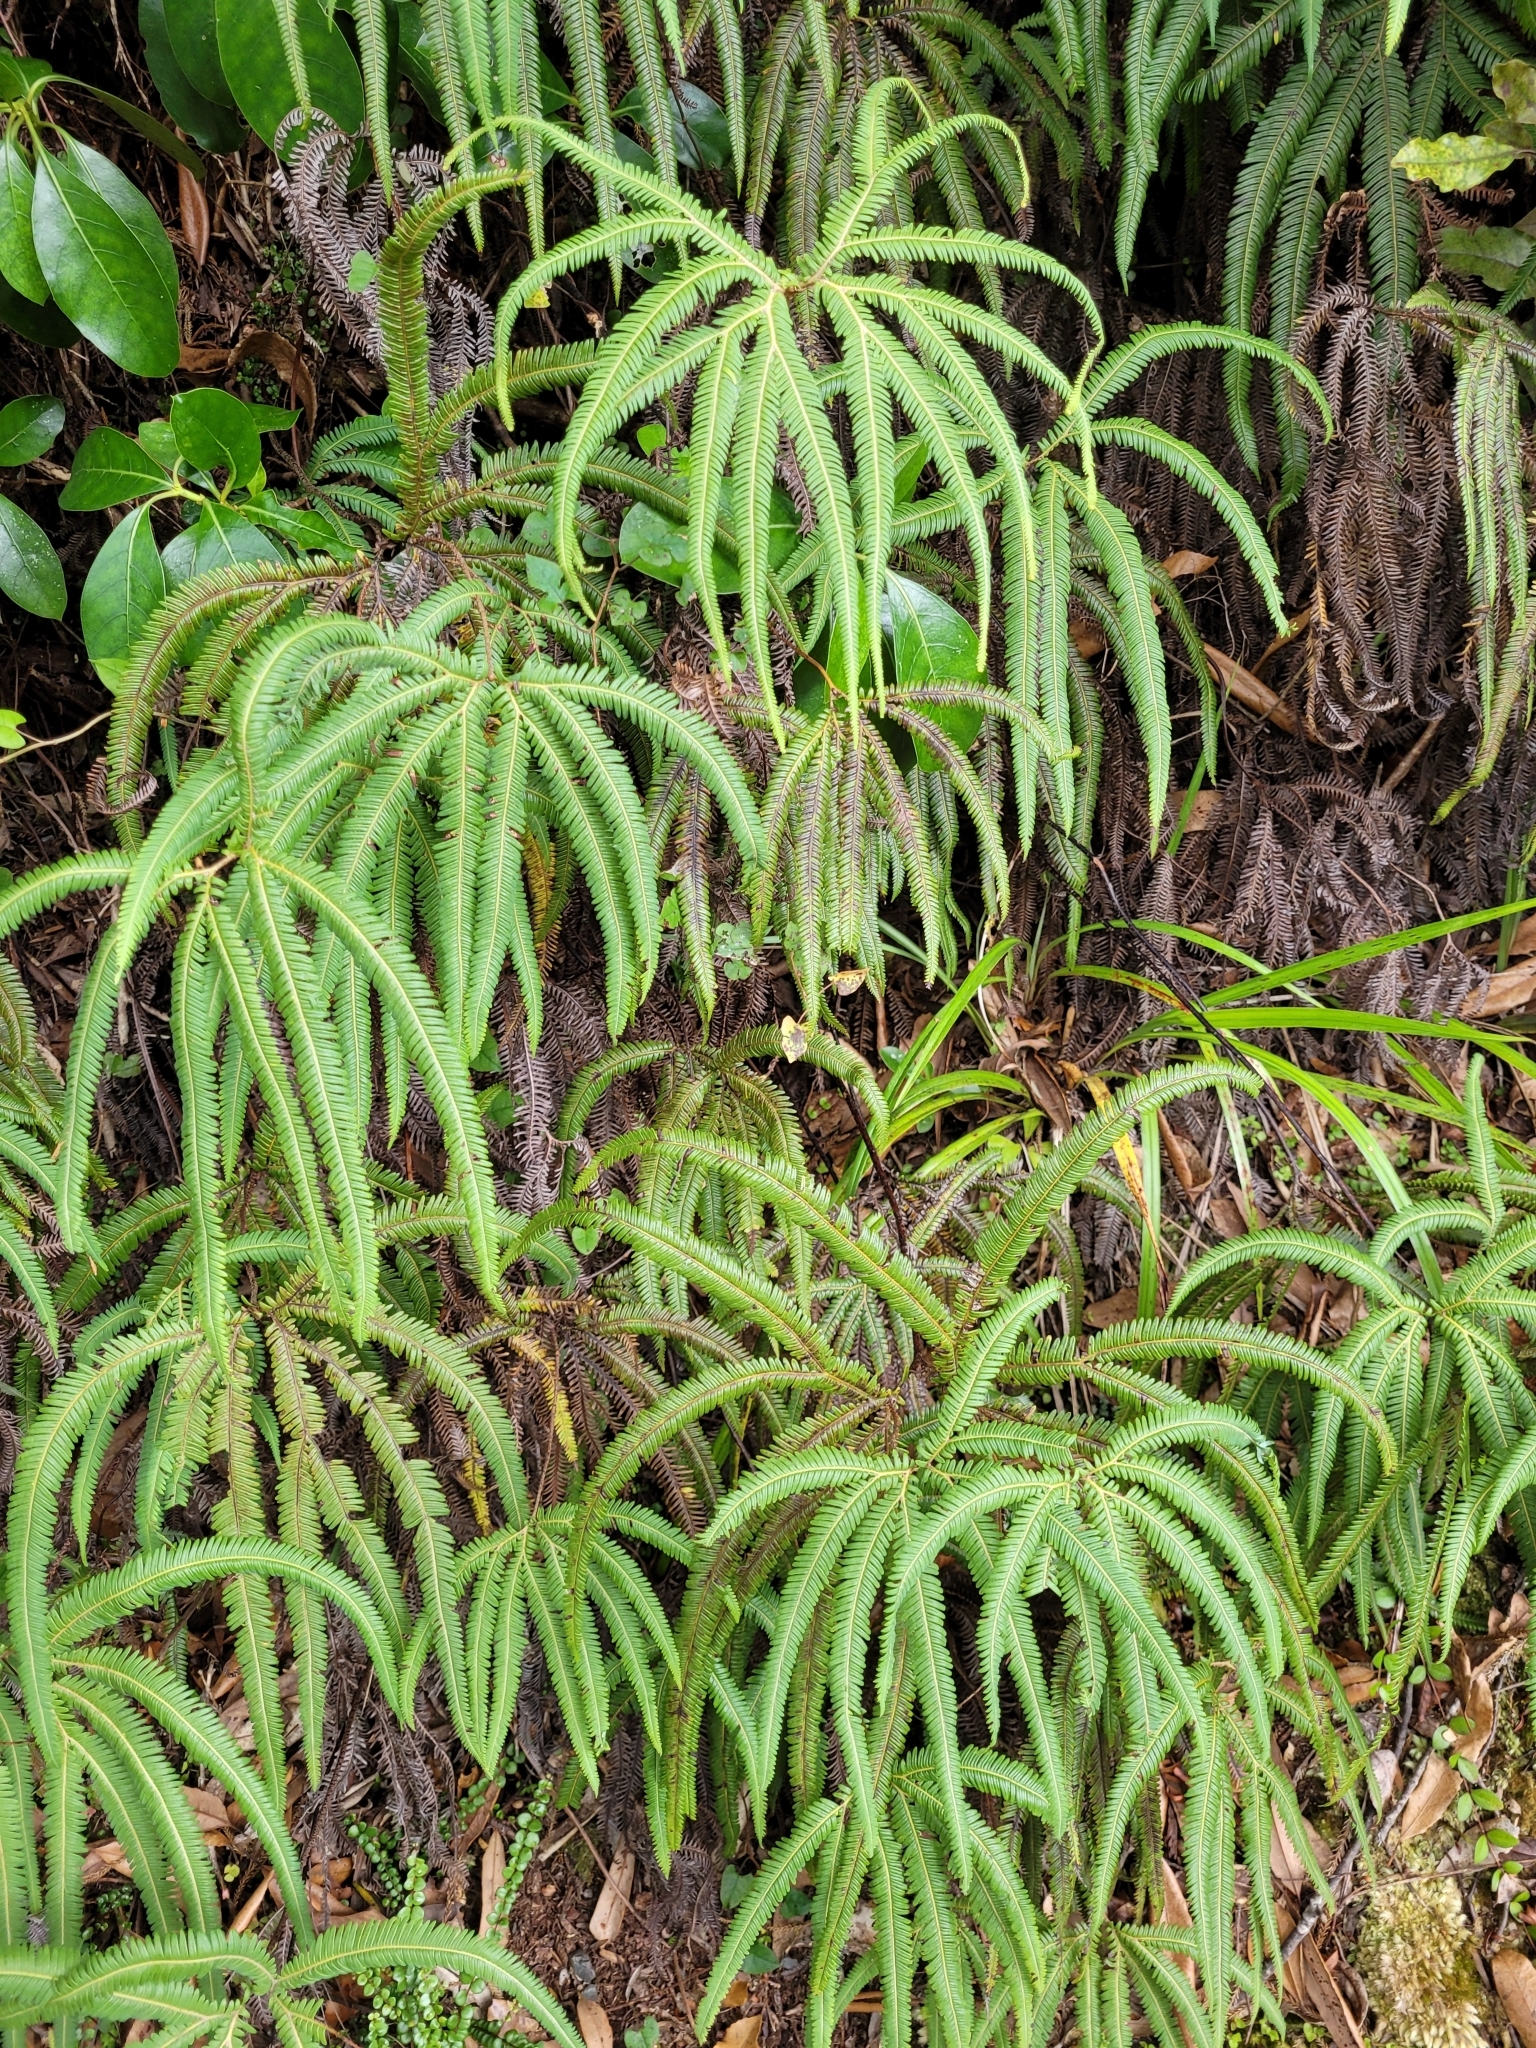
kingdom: Plantae
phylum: Tracheophyta
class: Polypodiopsida
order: Gleicheniales
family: Gleicheniaceae
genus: Sticherus
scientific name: Sticherus cunninghamii
